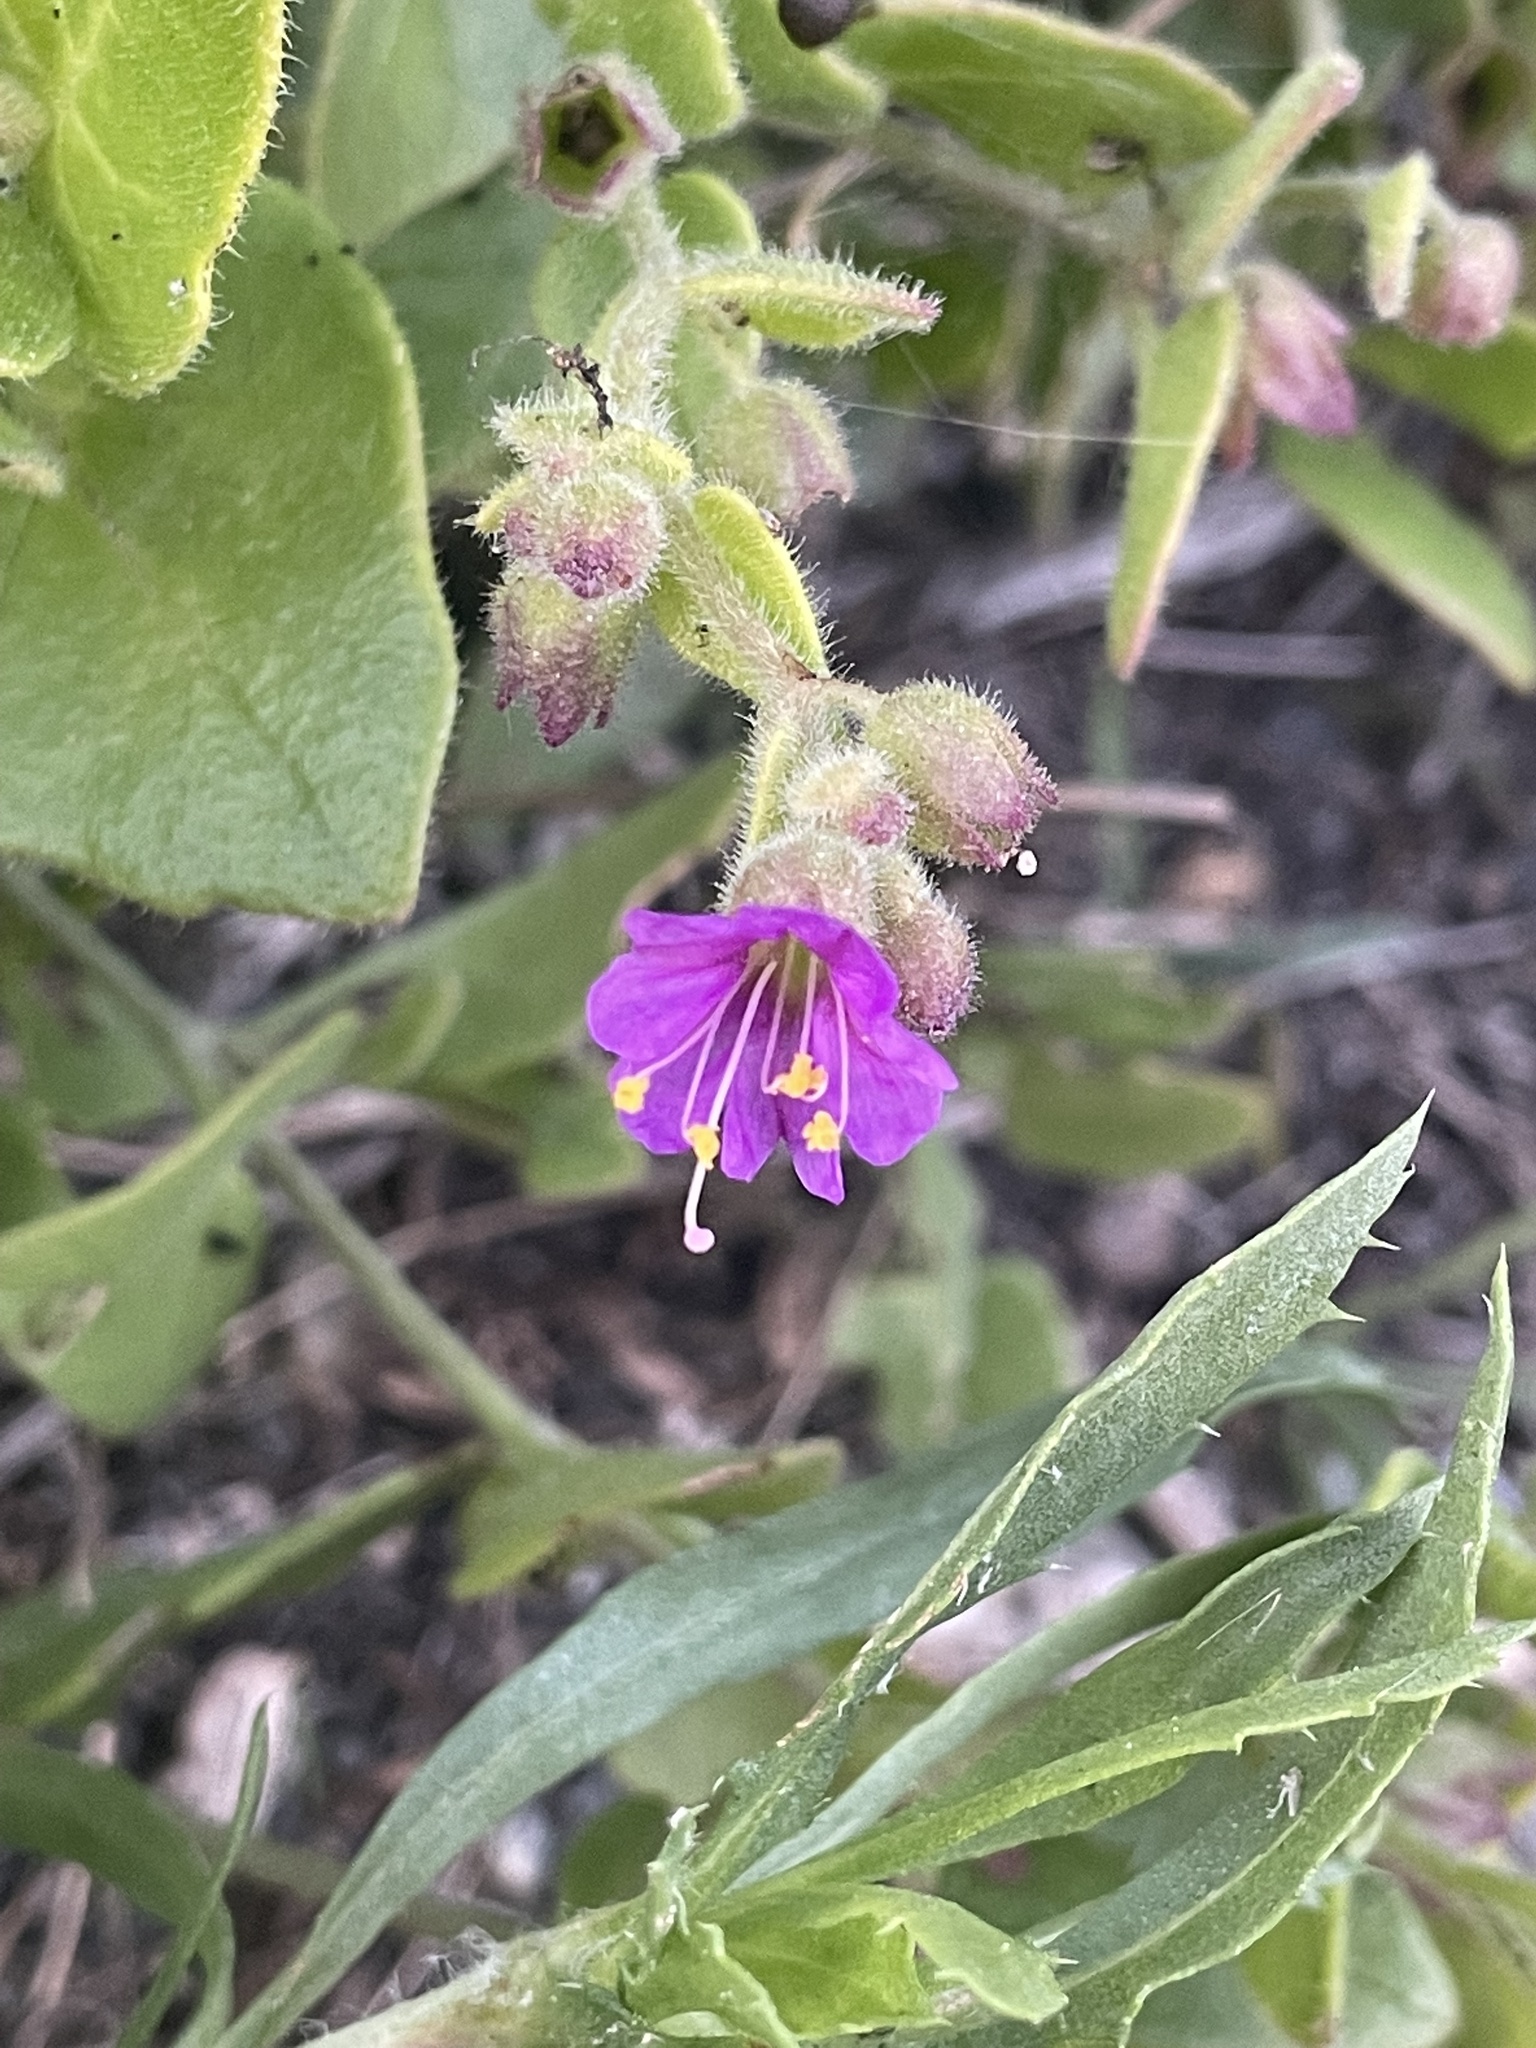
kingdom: Plantae
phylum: Tracheophyta
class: Magnoliopsida
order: Caryophyllales
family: Nyctaginaceae
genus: Mirabilis
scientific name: Mirabilis laevis
